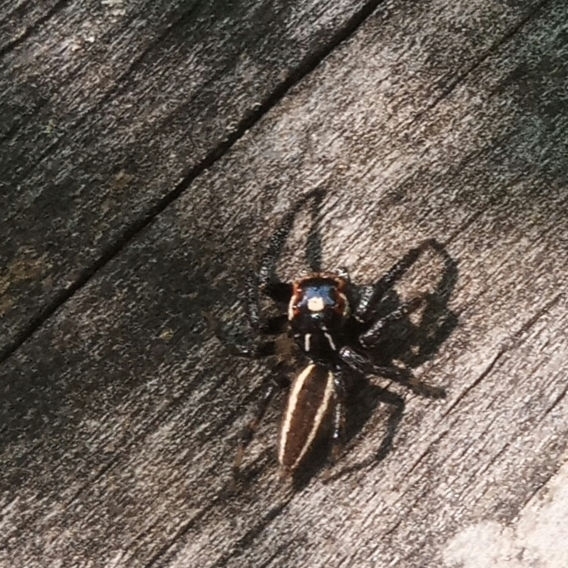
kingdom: Animalia
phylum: Arthropoda
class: Arachnida
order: Araneae
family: Salticidae
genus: Colonus
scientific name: Colonus sylvanus
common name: Jumping spiders
